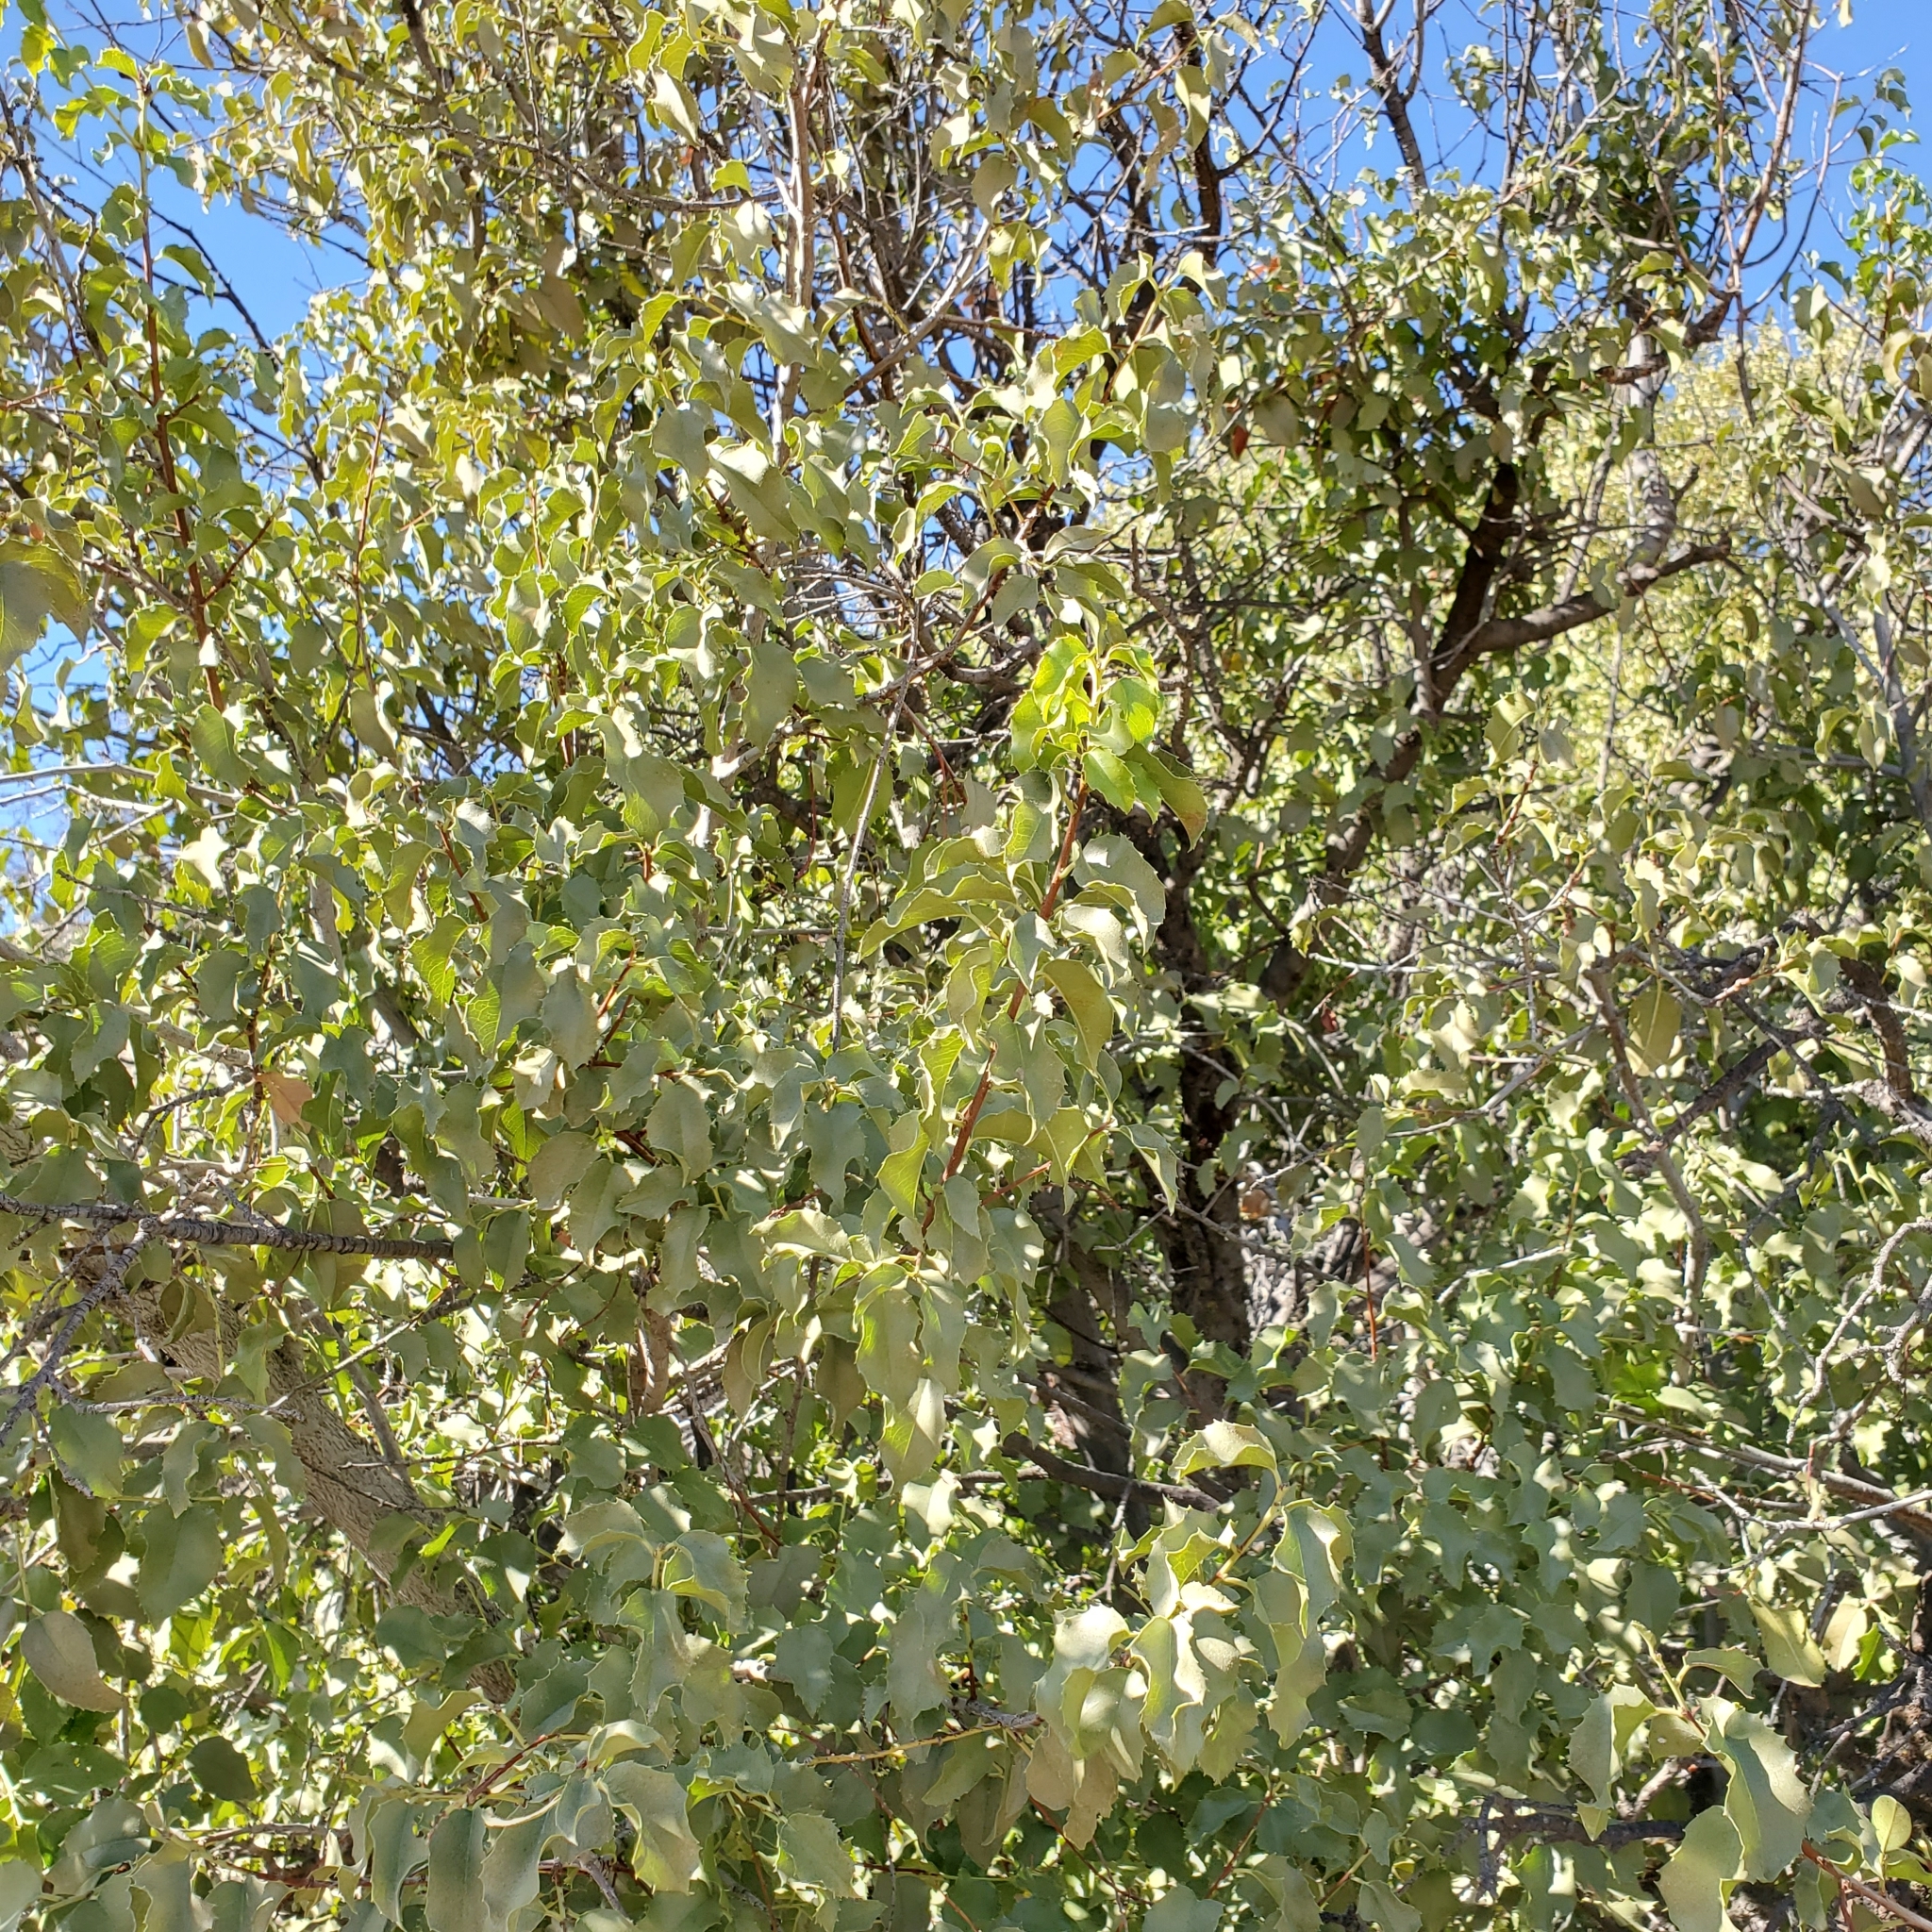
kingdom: Plantae
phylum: Tracheophyta
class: Magnoliopsida
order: Rosales
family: Rosaceae
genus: Prunus
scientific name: Prunus ilicifolia
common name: Hollyleaf cherry
